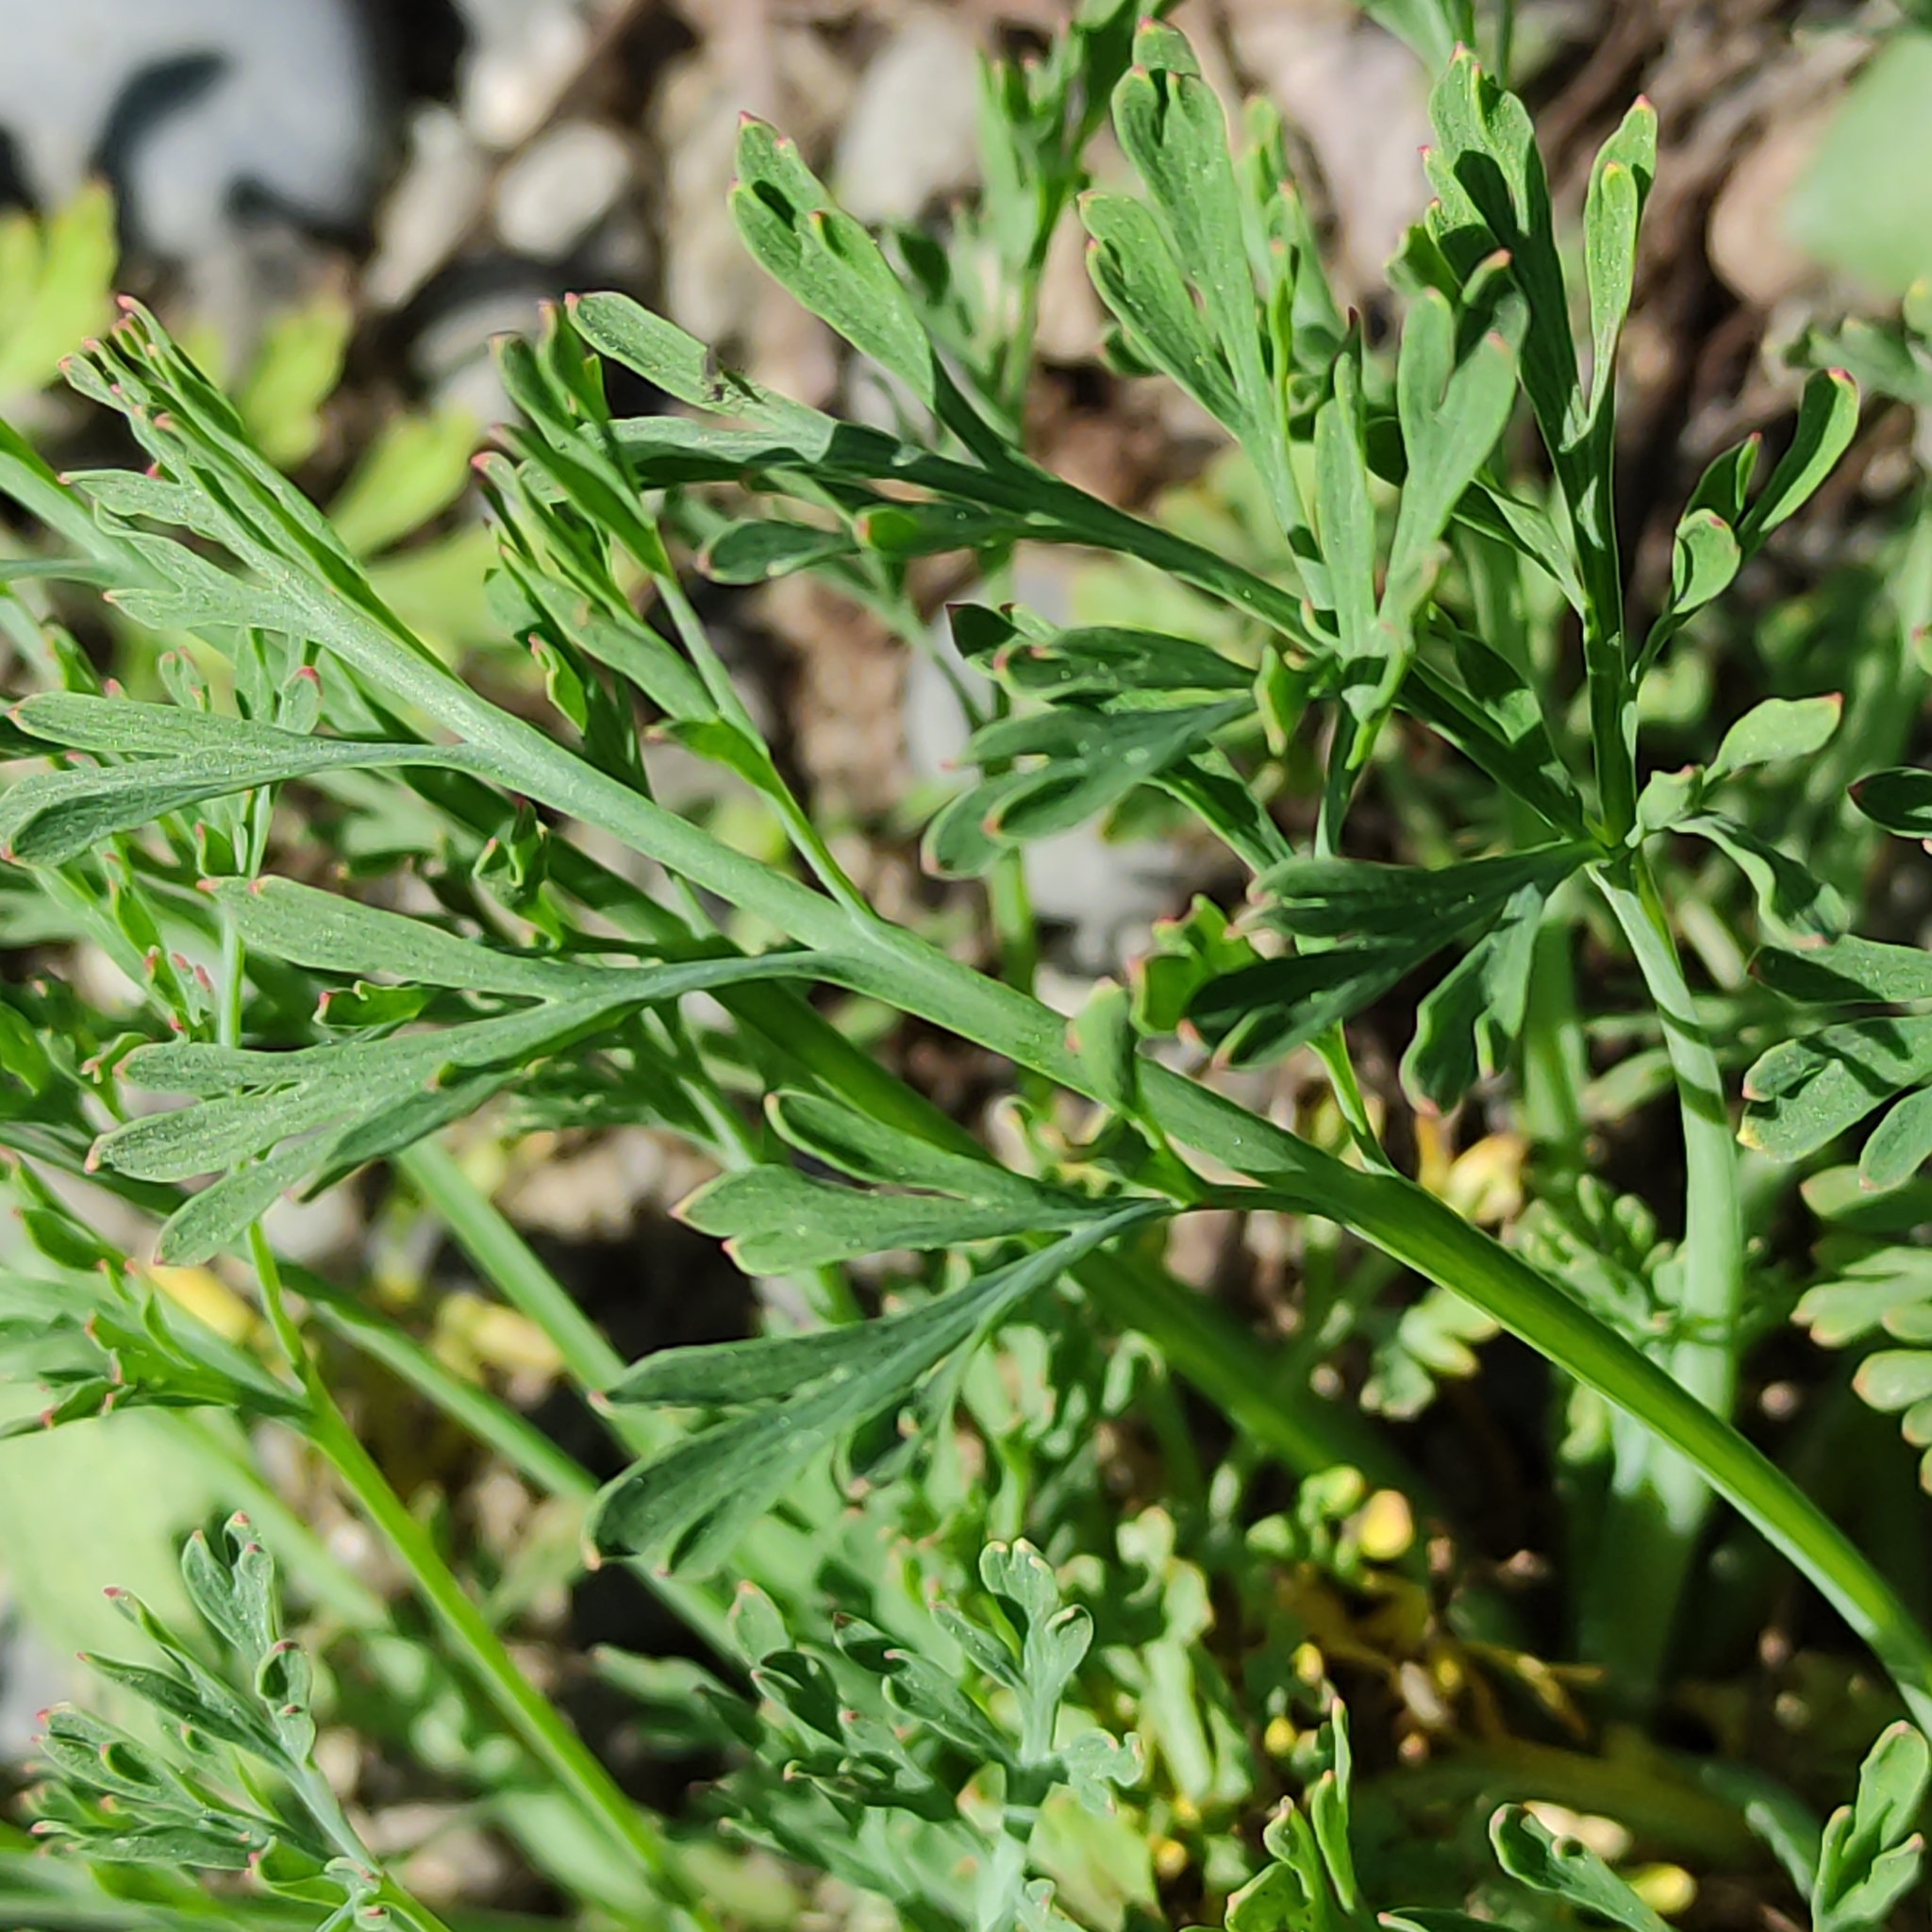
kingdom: Plantae
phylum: Tracheophyta
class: Magnoliopsida
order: Ranunculales
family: Papaveraceae
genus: Eschscholzia
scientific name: Eschscholzia californica
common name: California poppy
